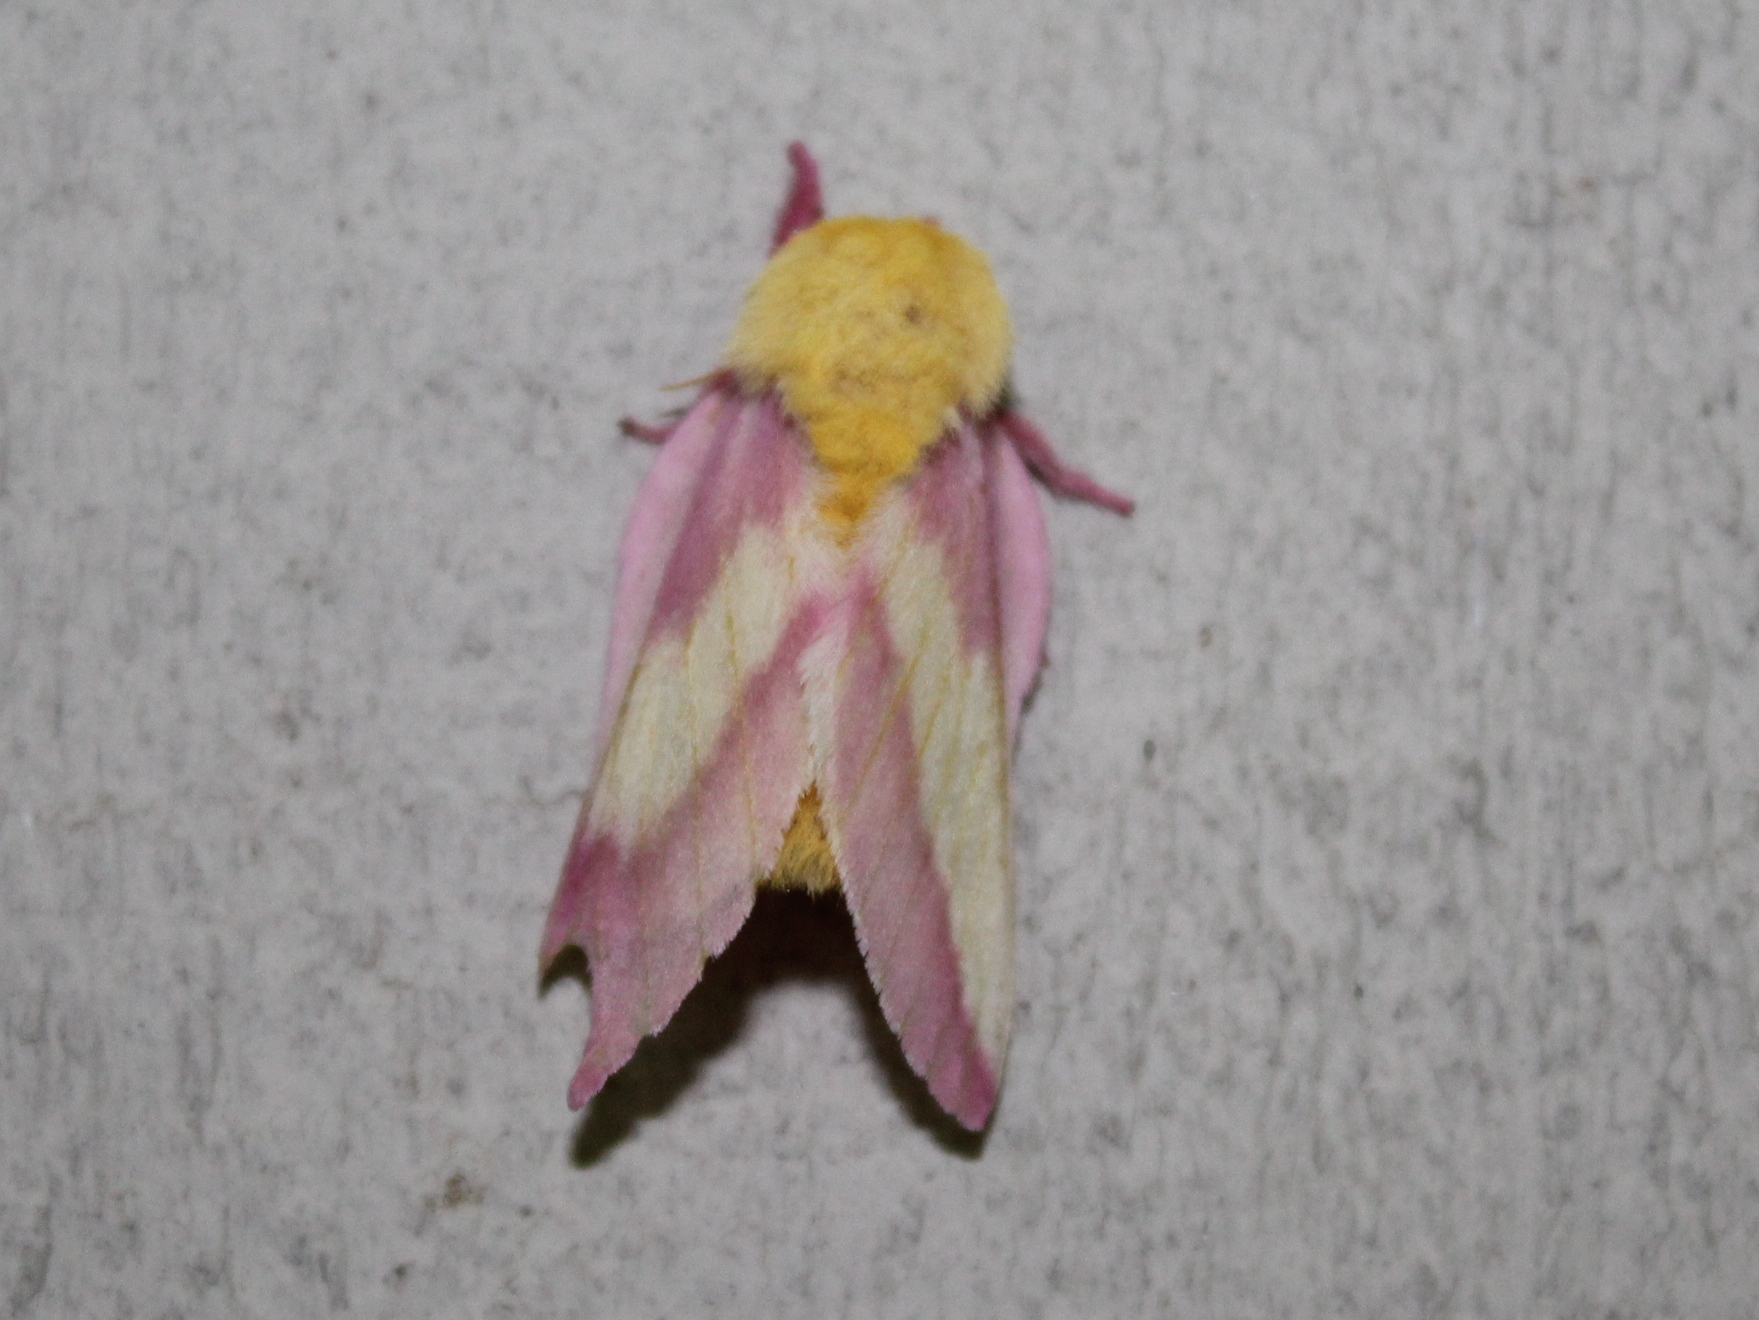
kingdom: Animalia
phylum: Arthropoda
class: Insecta
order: Lepidoptera
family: Saturniidae
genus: Dryocampa
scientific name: Dryocampa rubicunda
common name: Rosy maple moth
